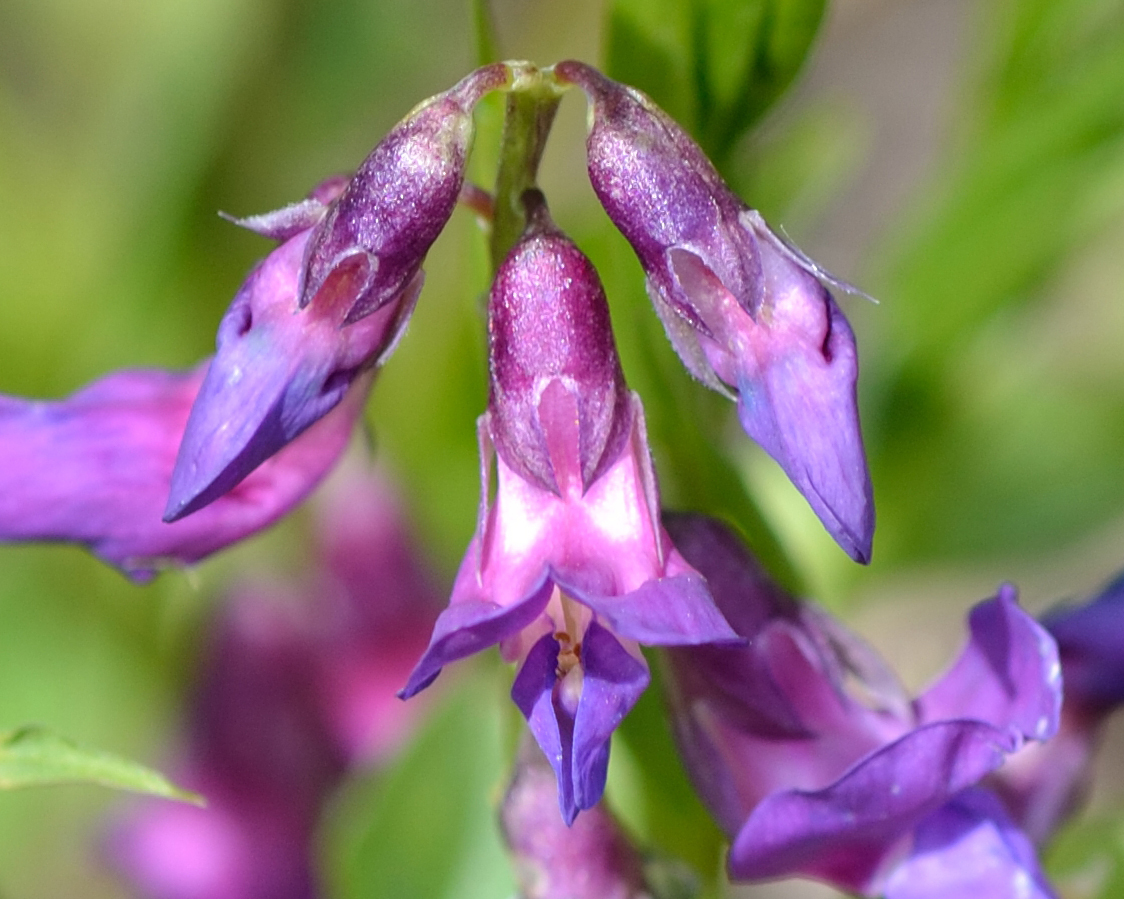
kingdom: Plantae
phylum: Tracheophyta
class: Magnoliopsida
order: Fabales
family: Fabaceae
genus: Lathyrus
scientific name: Lathyrus vernus
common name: Spring pea
